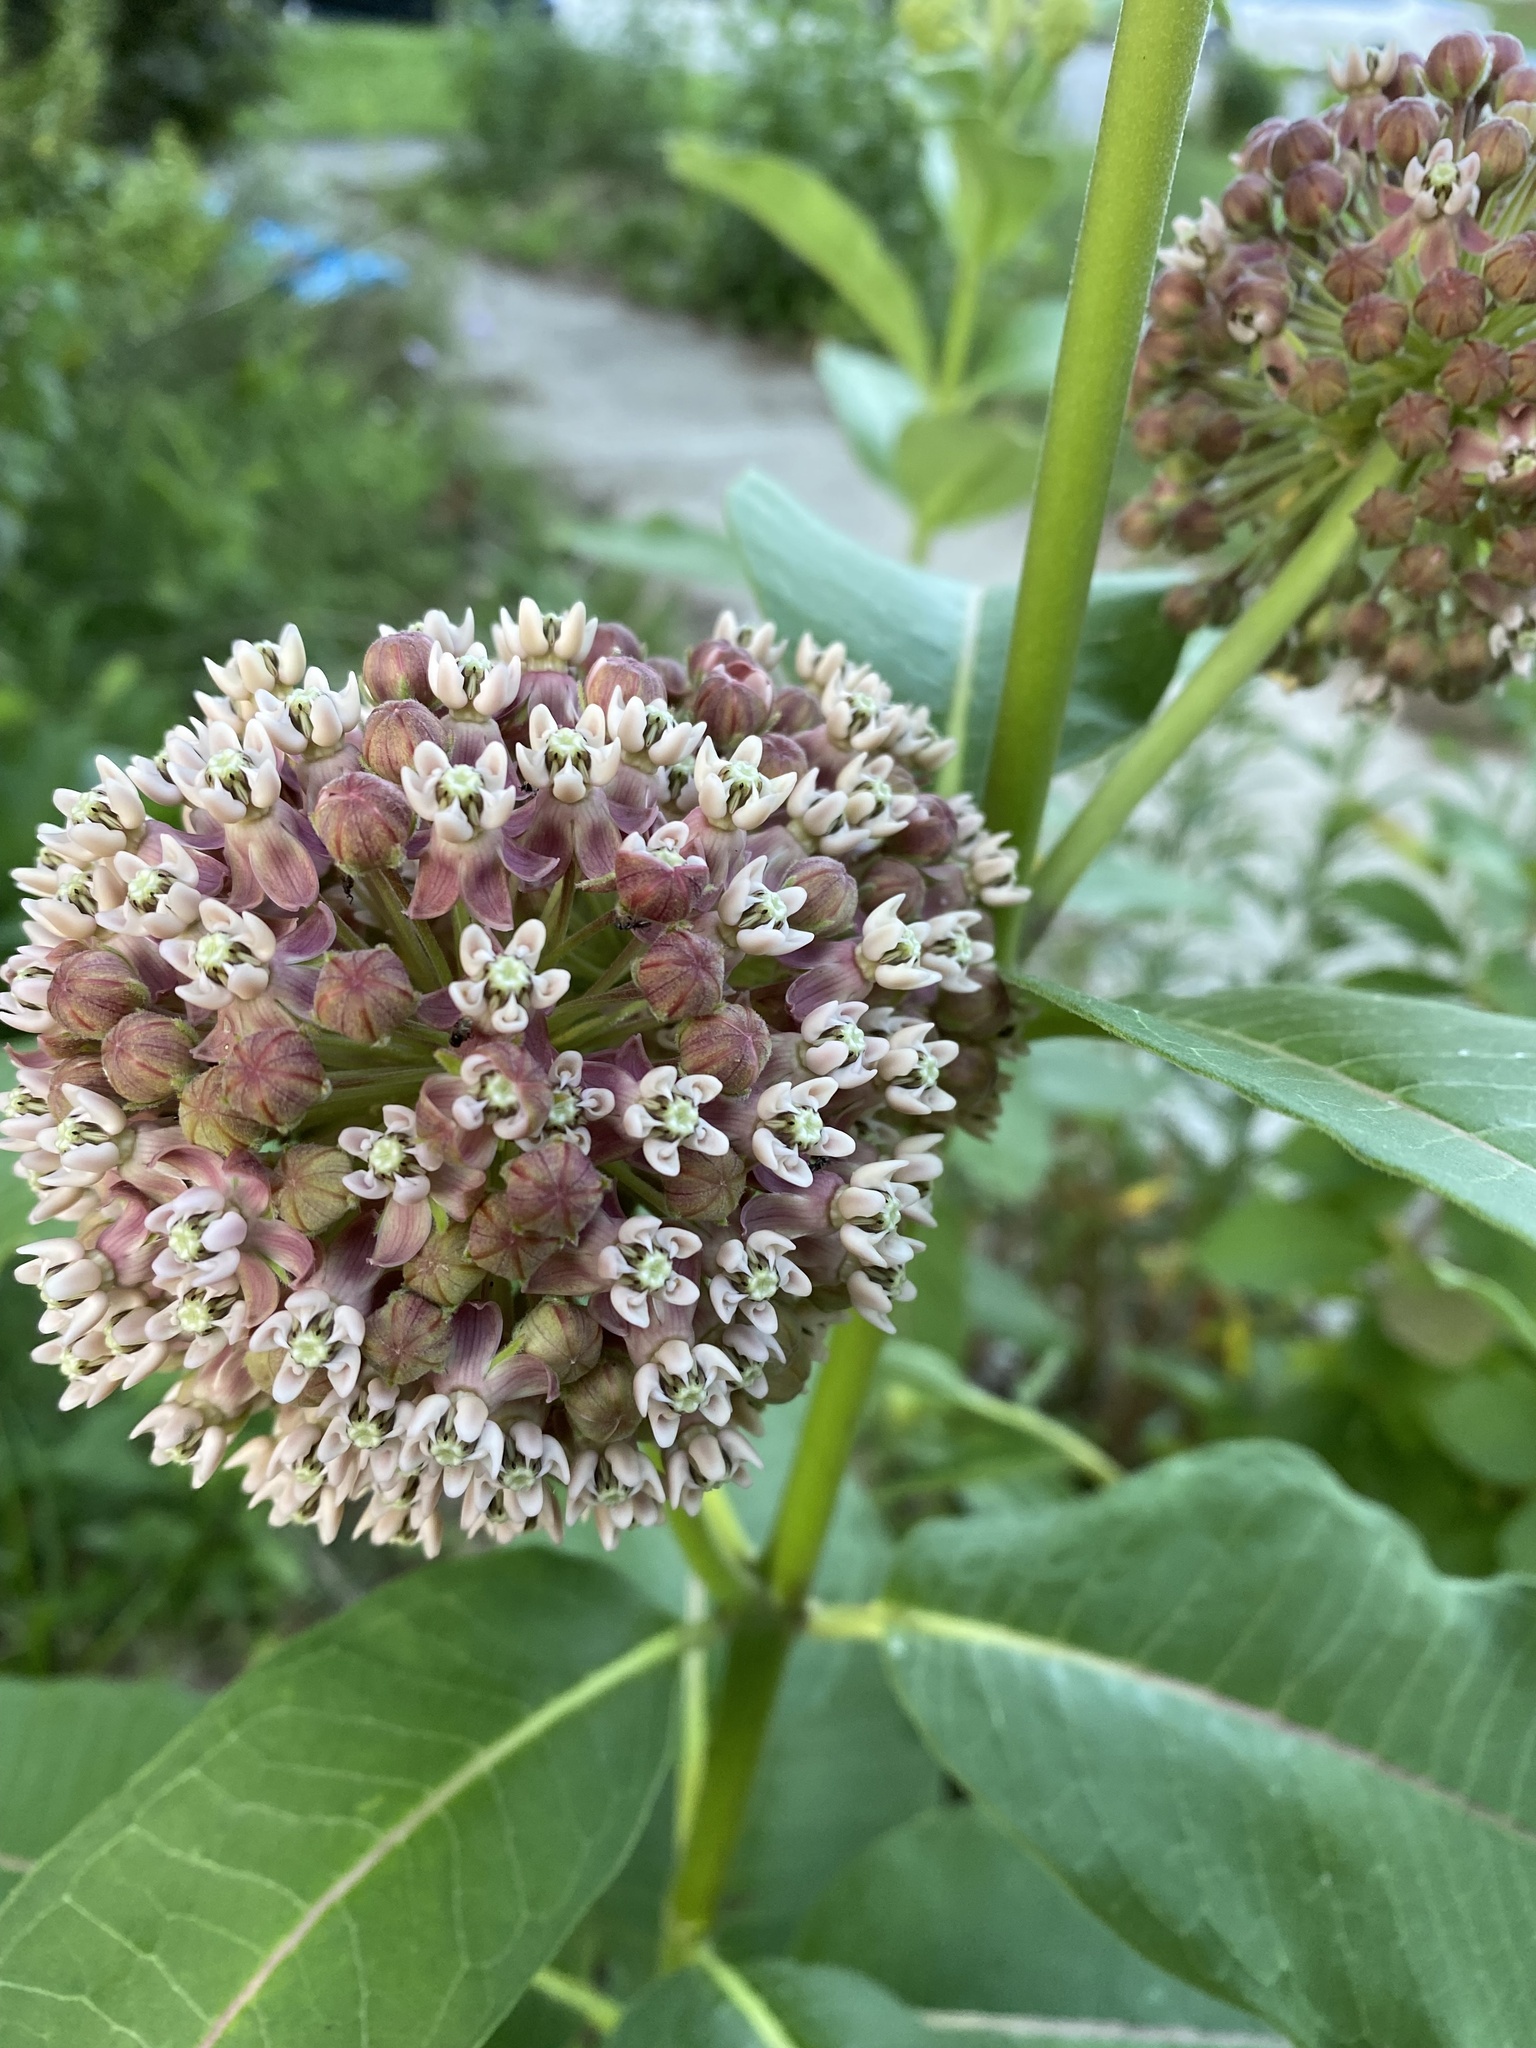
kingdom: Plantae
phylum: Tracheophyta
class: Magnoliopsida
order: Gentianales
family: Apocynaceae
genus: Asclepias
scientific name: Asclepias syriaca
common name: Common milkweed
